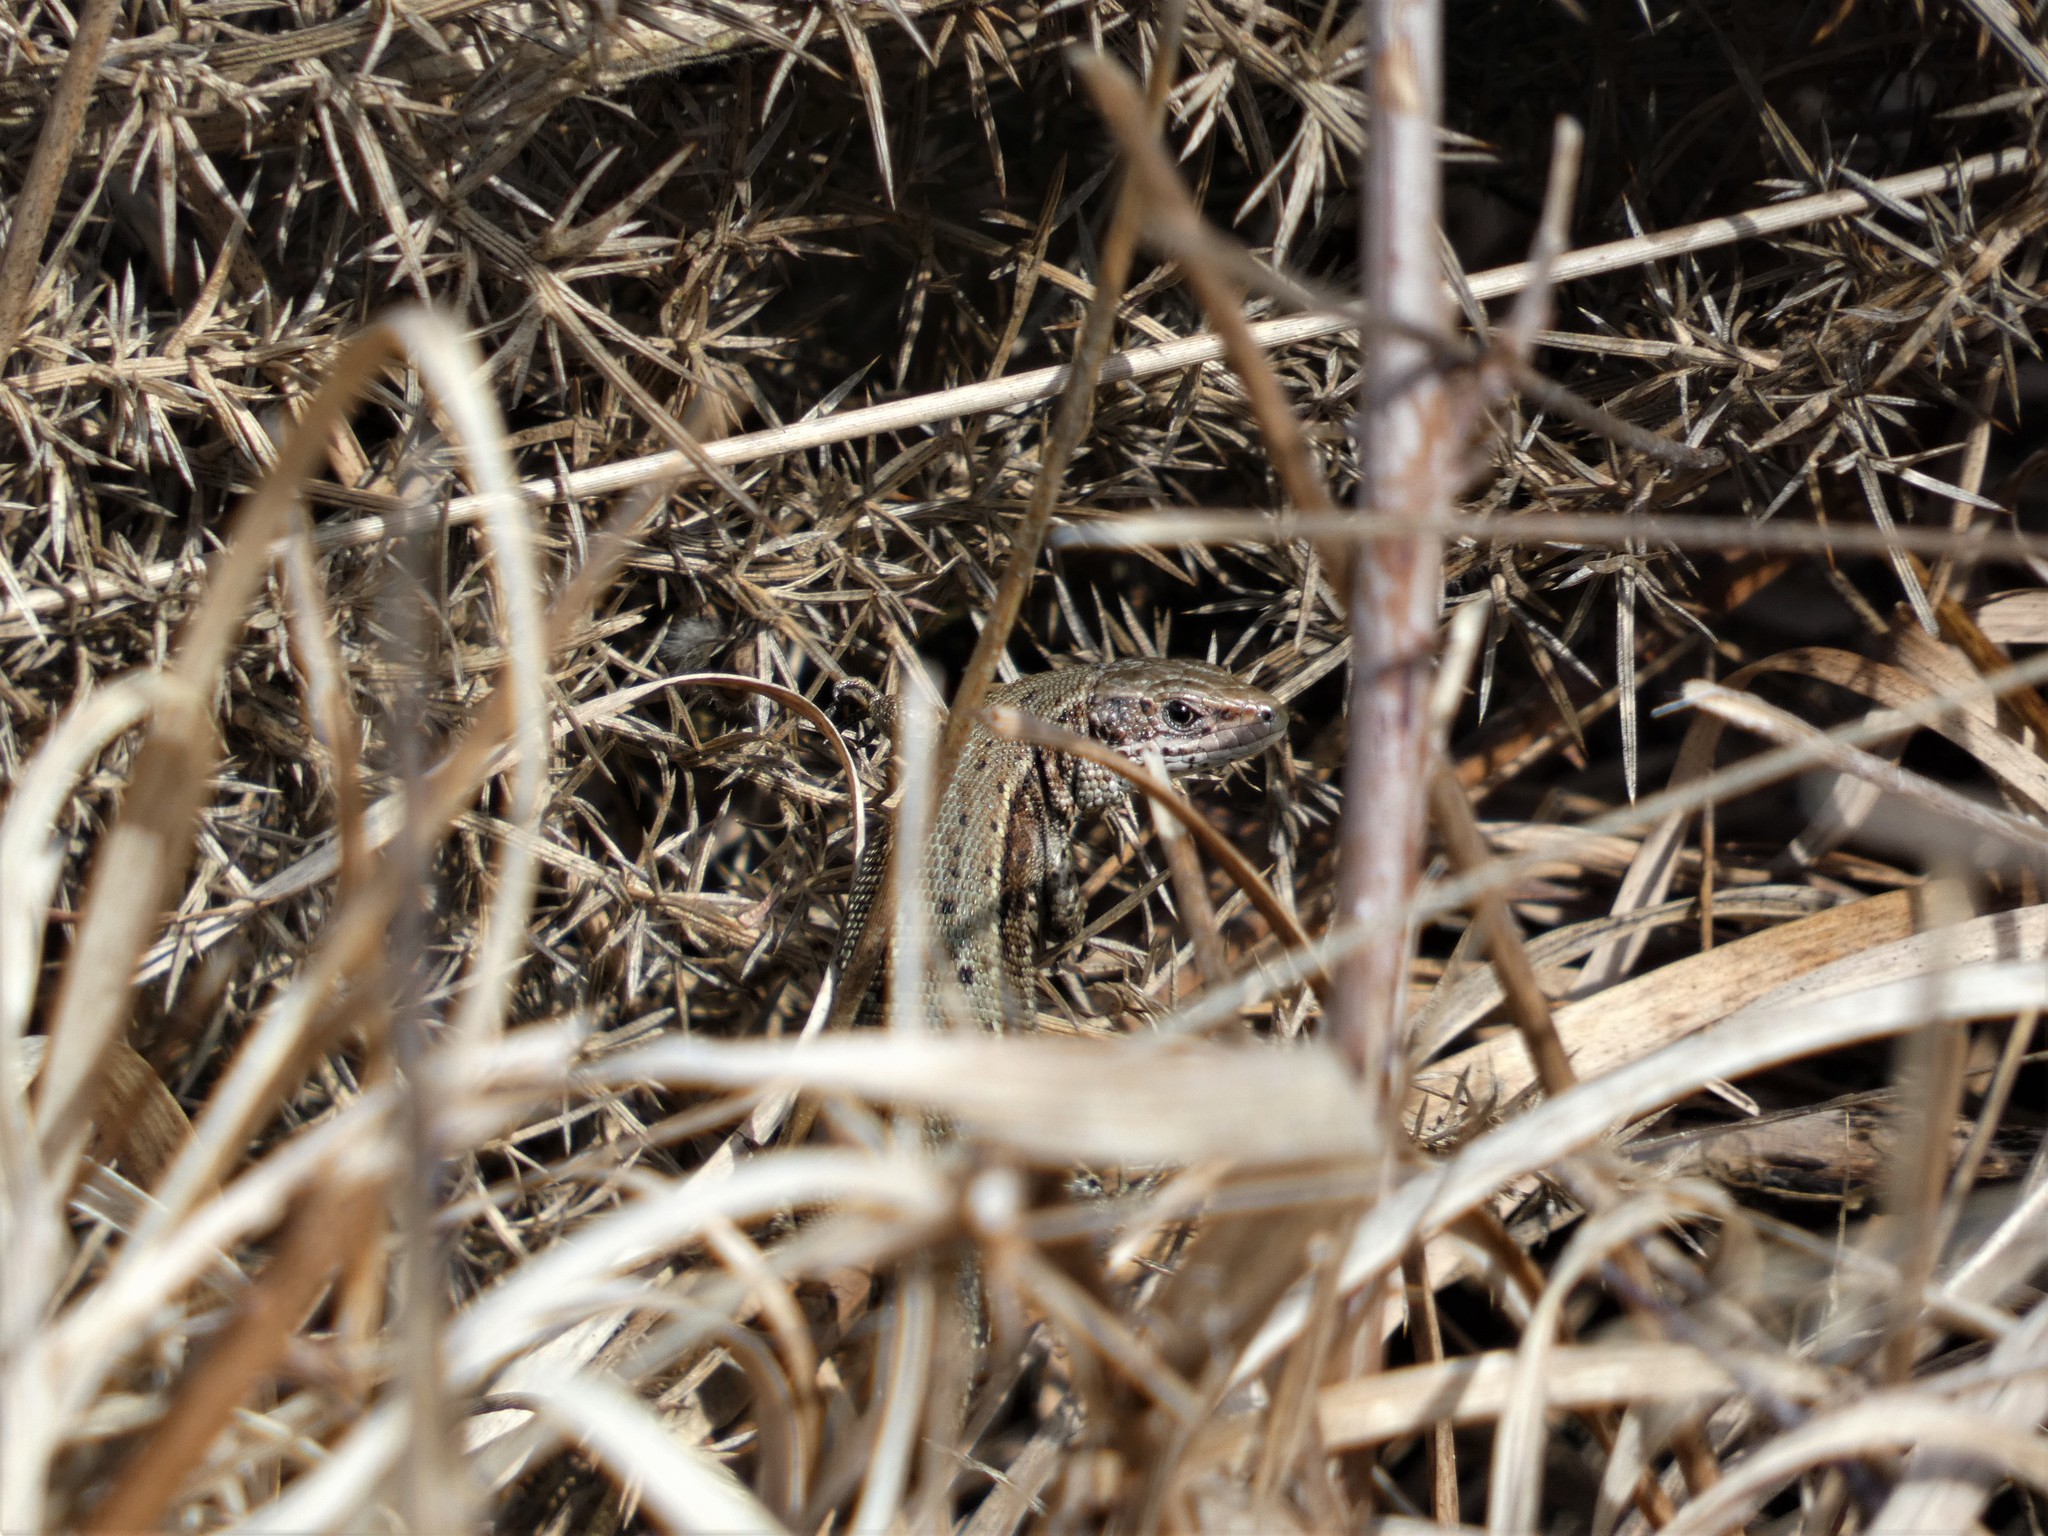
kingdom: Animalia
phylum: Chordata
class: Squamata
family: Lacertidae
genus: Zootoca
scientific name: Zootoca vivipara
